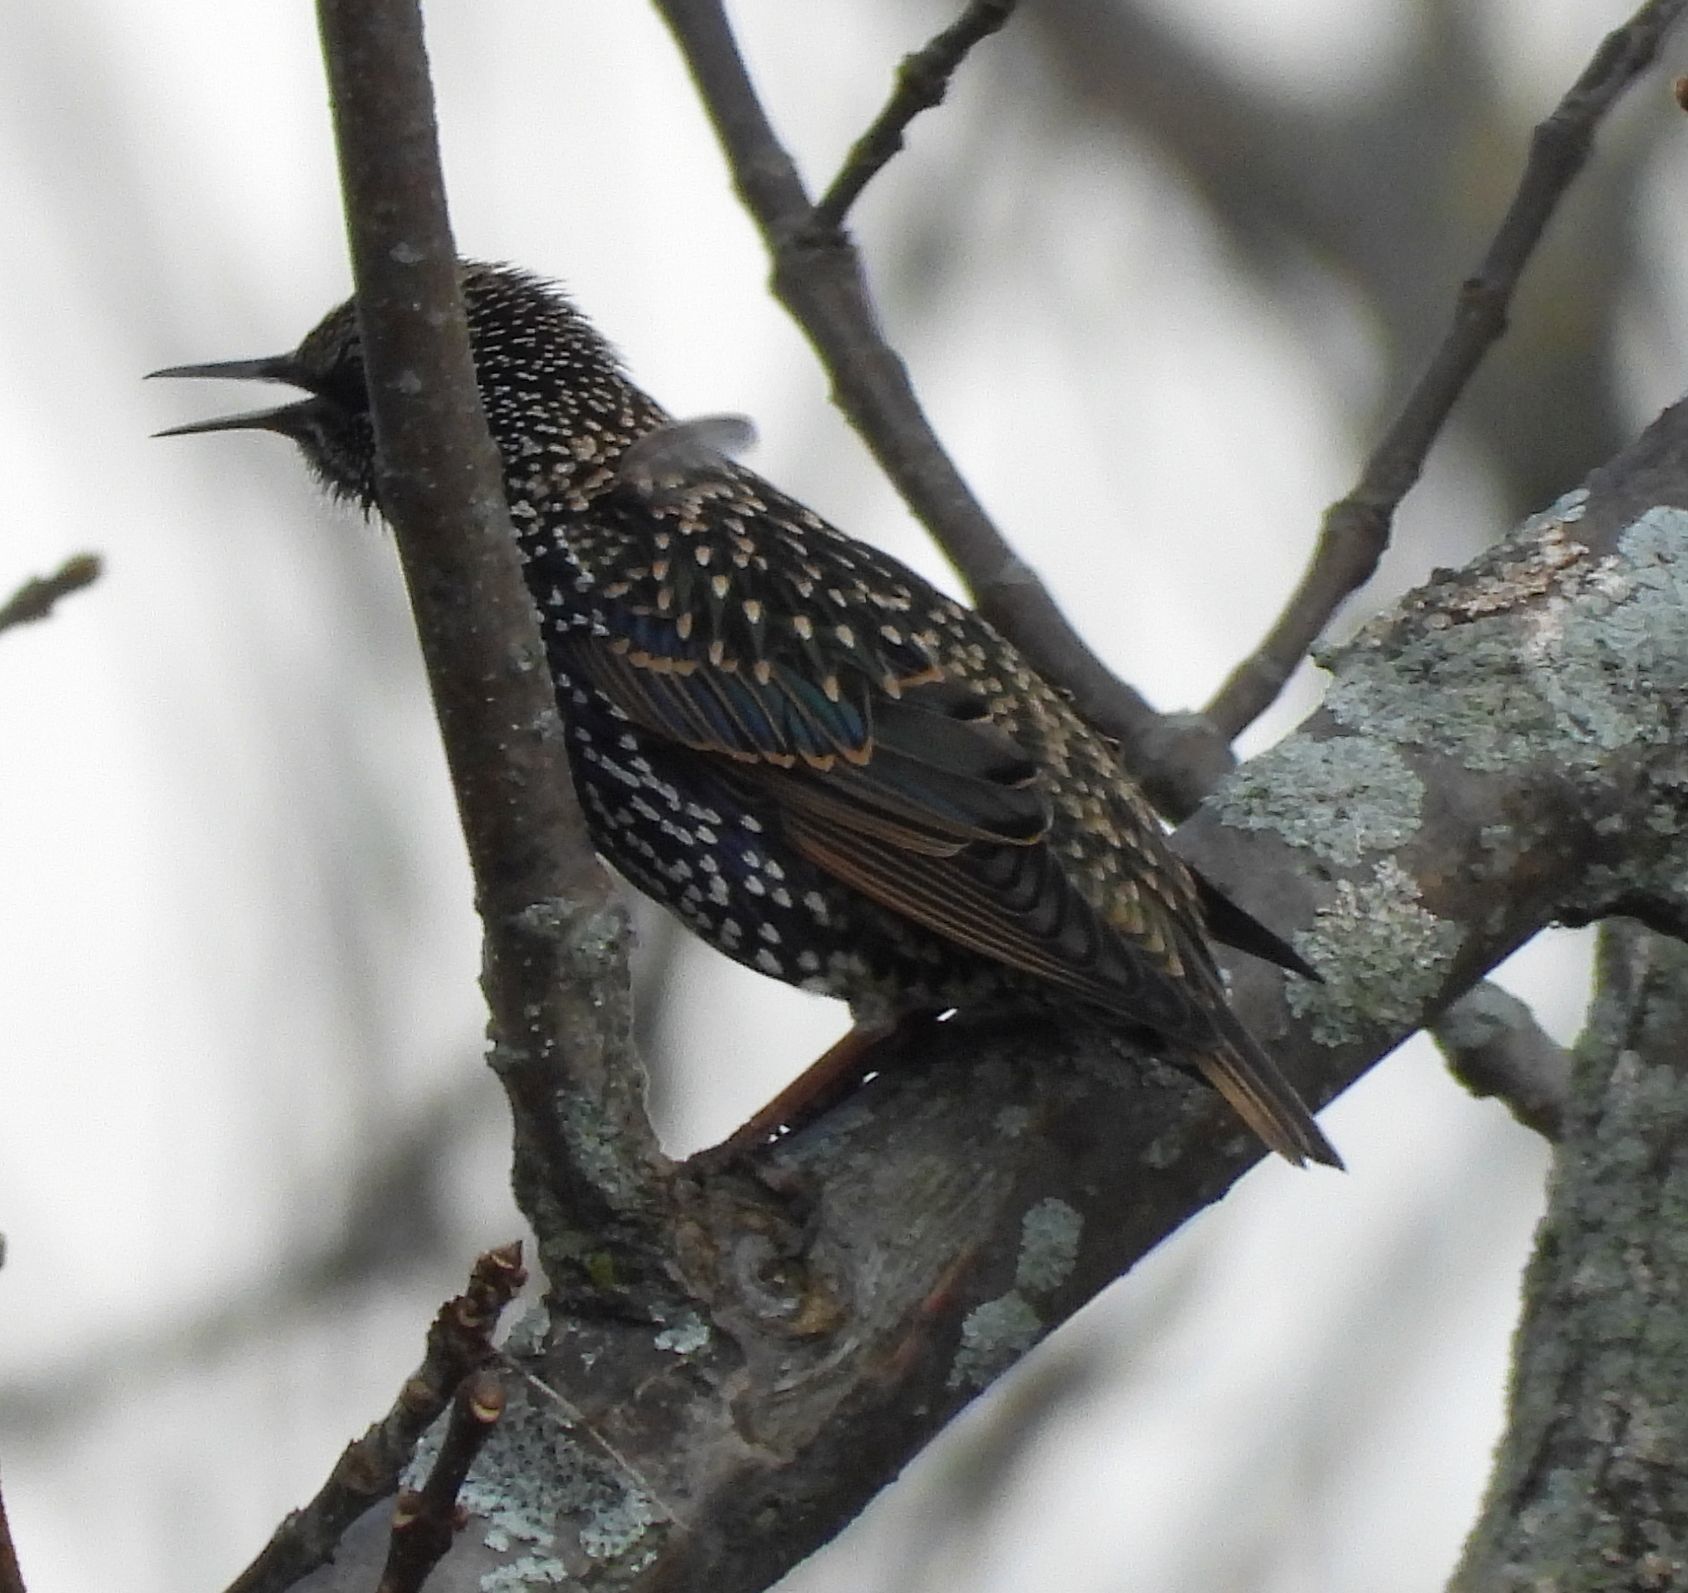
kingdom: Animalia
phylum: Chordata
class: Aves
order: Passeriformes
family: Sturnidae
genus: Sturnus
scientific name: Sturnus vulgaris
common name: Common starling
